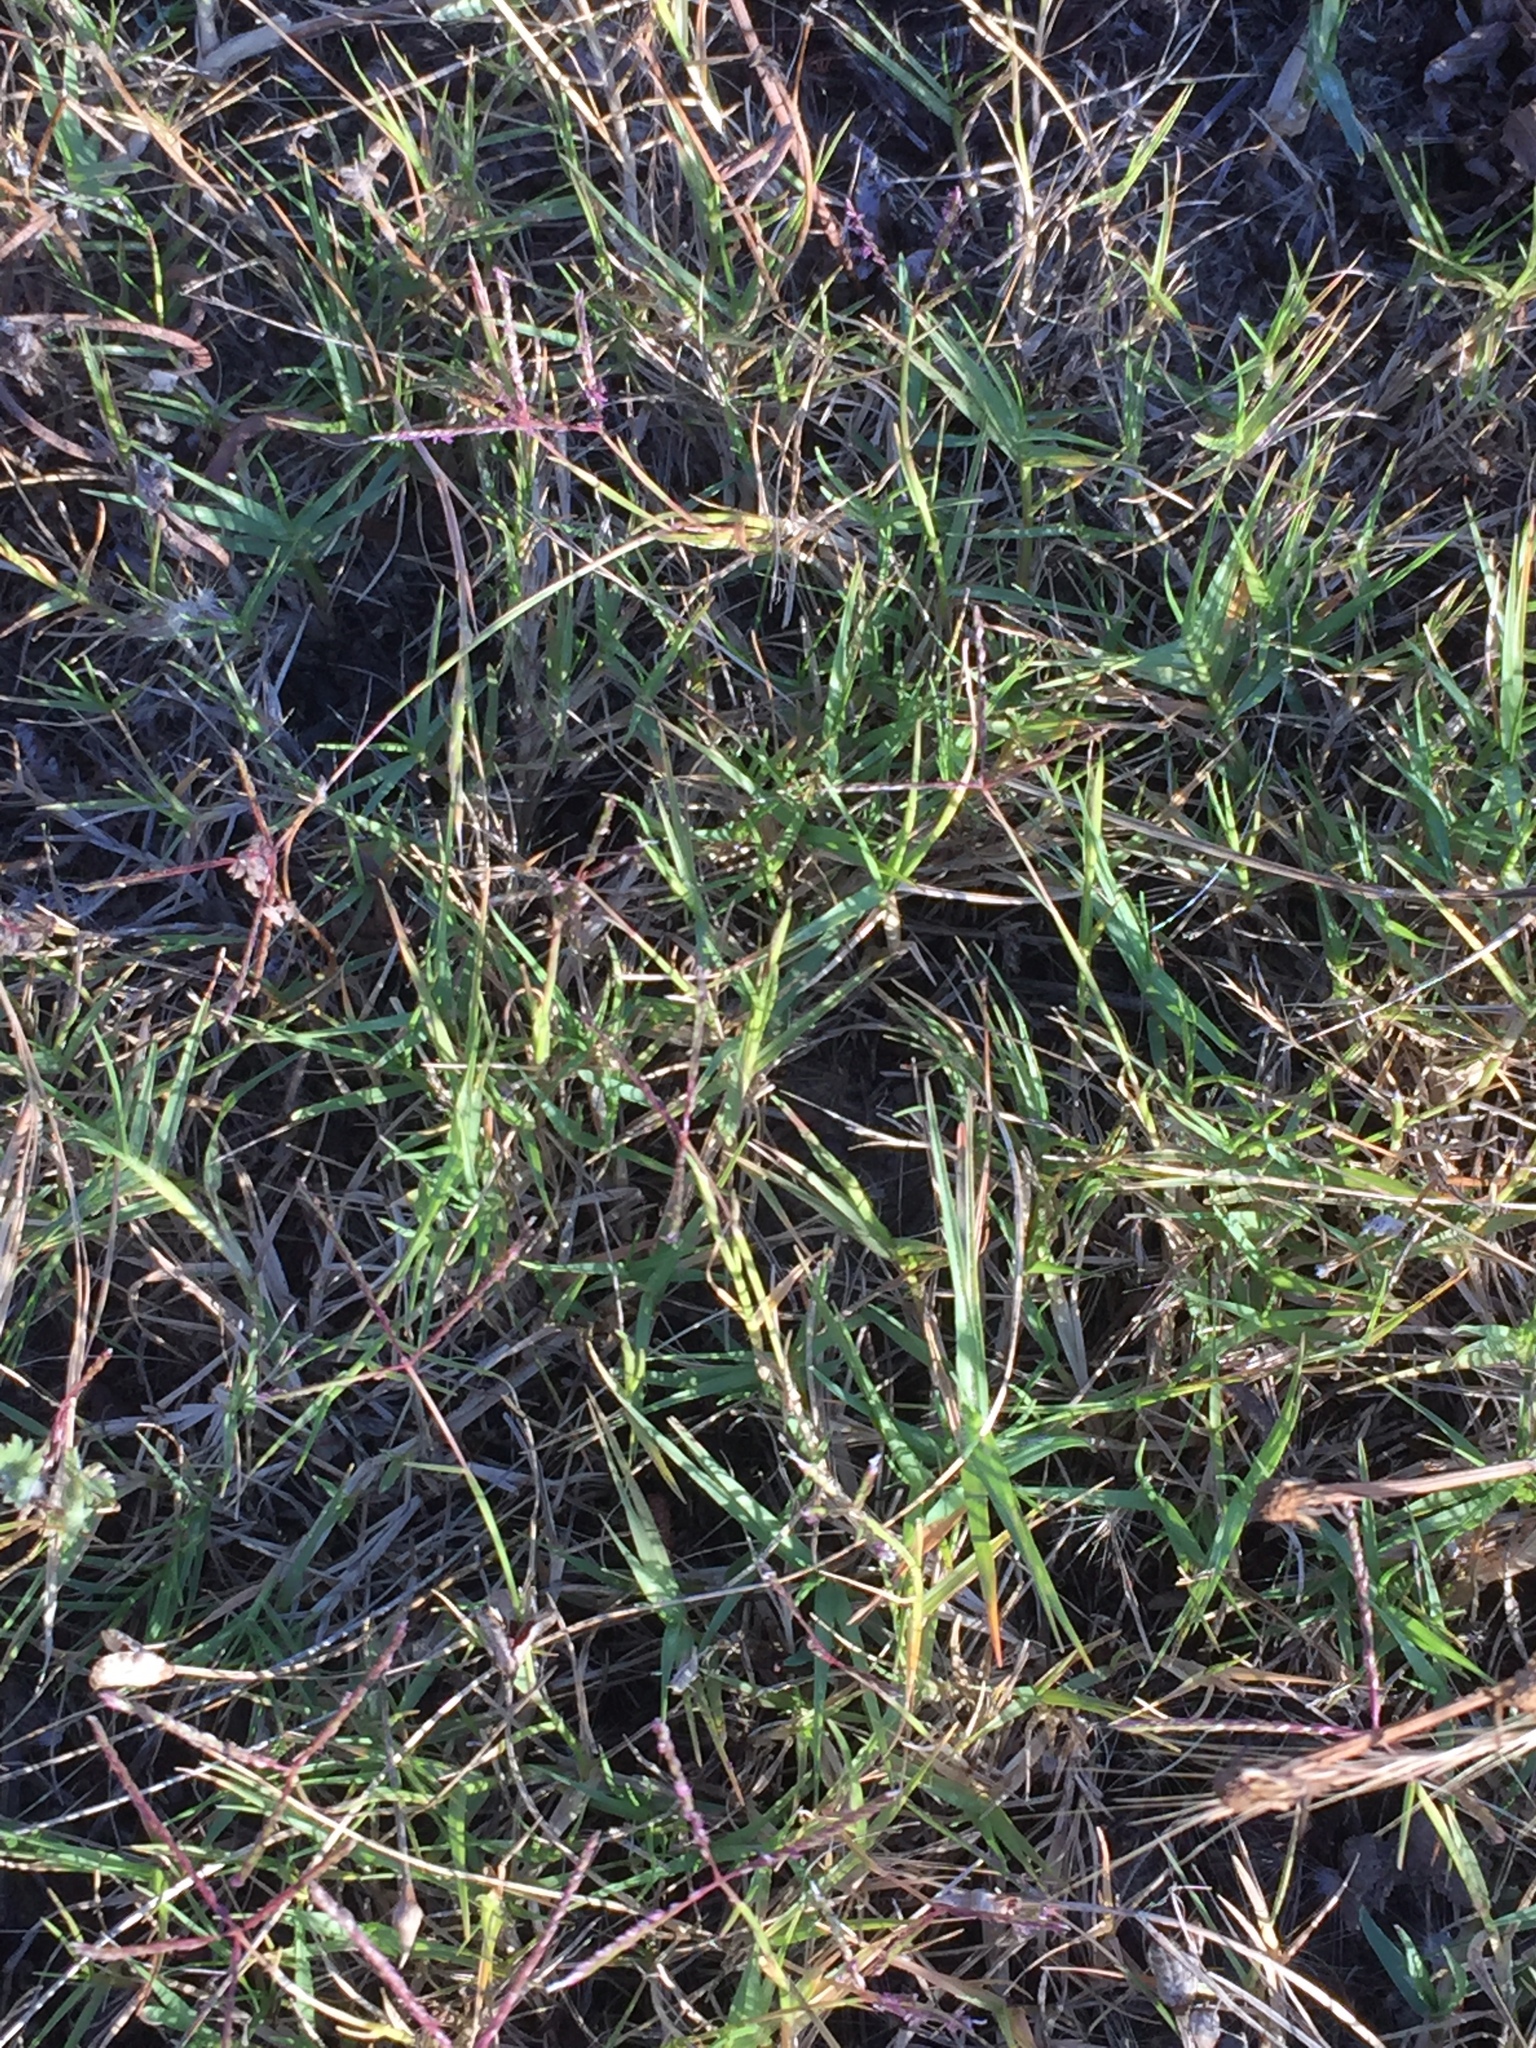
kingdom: Plantae
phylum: Tracheophyta
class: Liliopsida
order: Poales
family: Poaceae
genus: Cynodon
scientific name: Cynodon dactylon
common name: Bermuda grass
